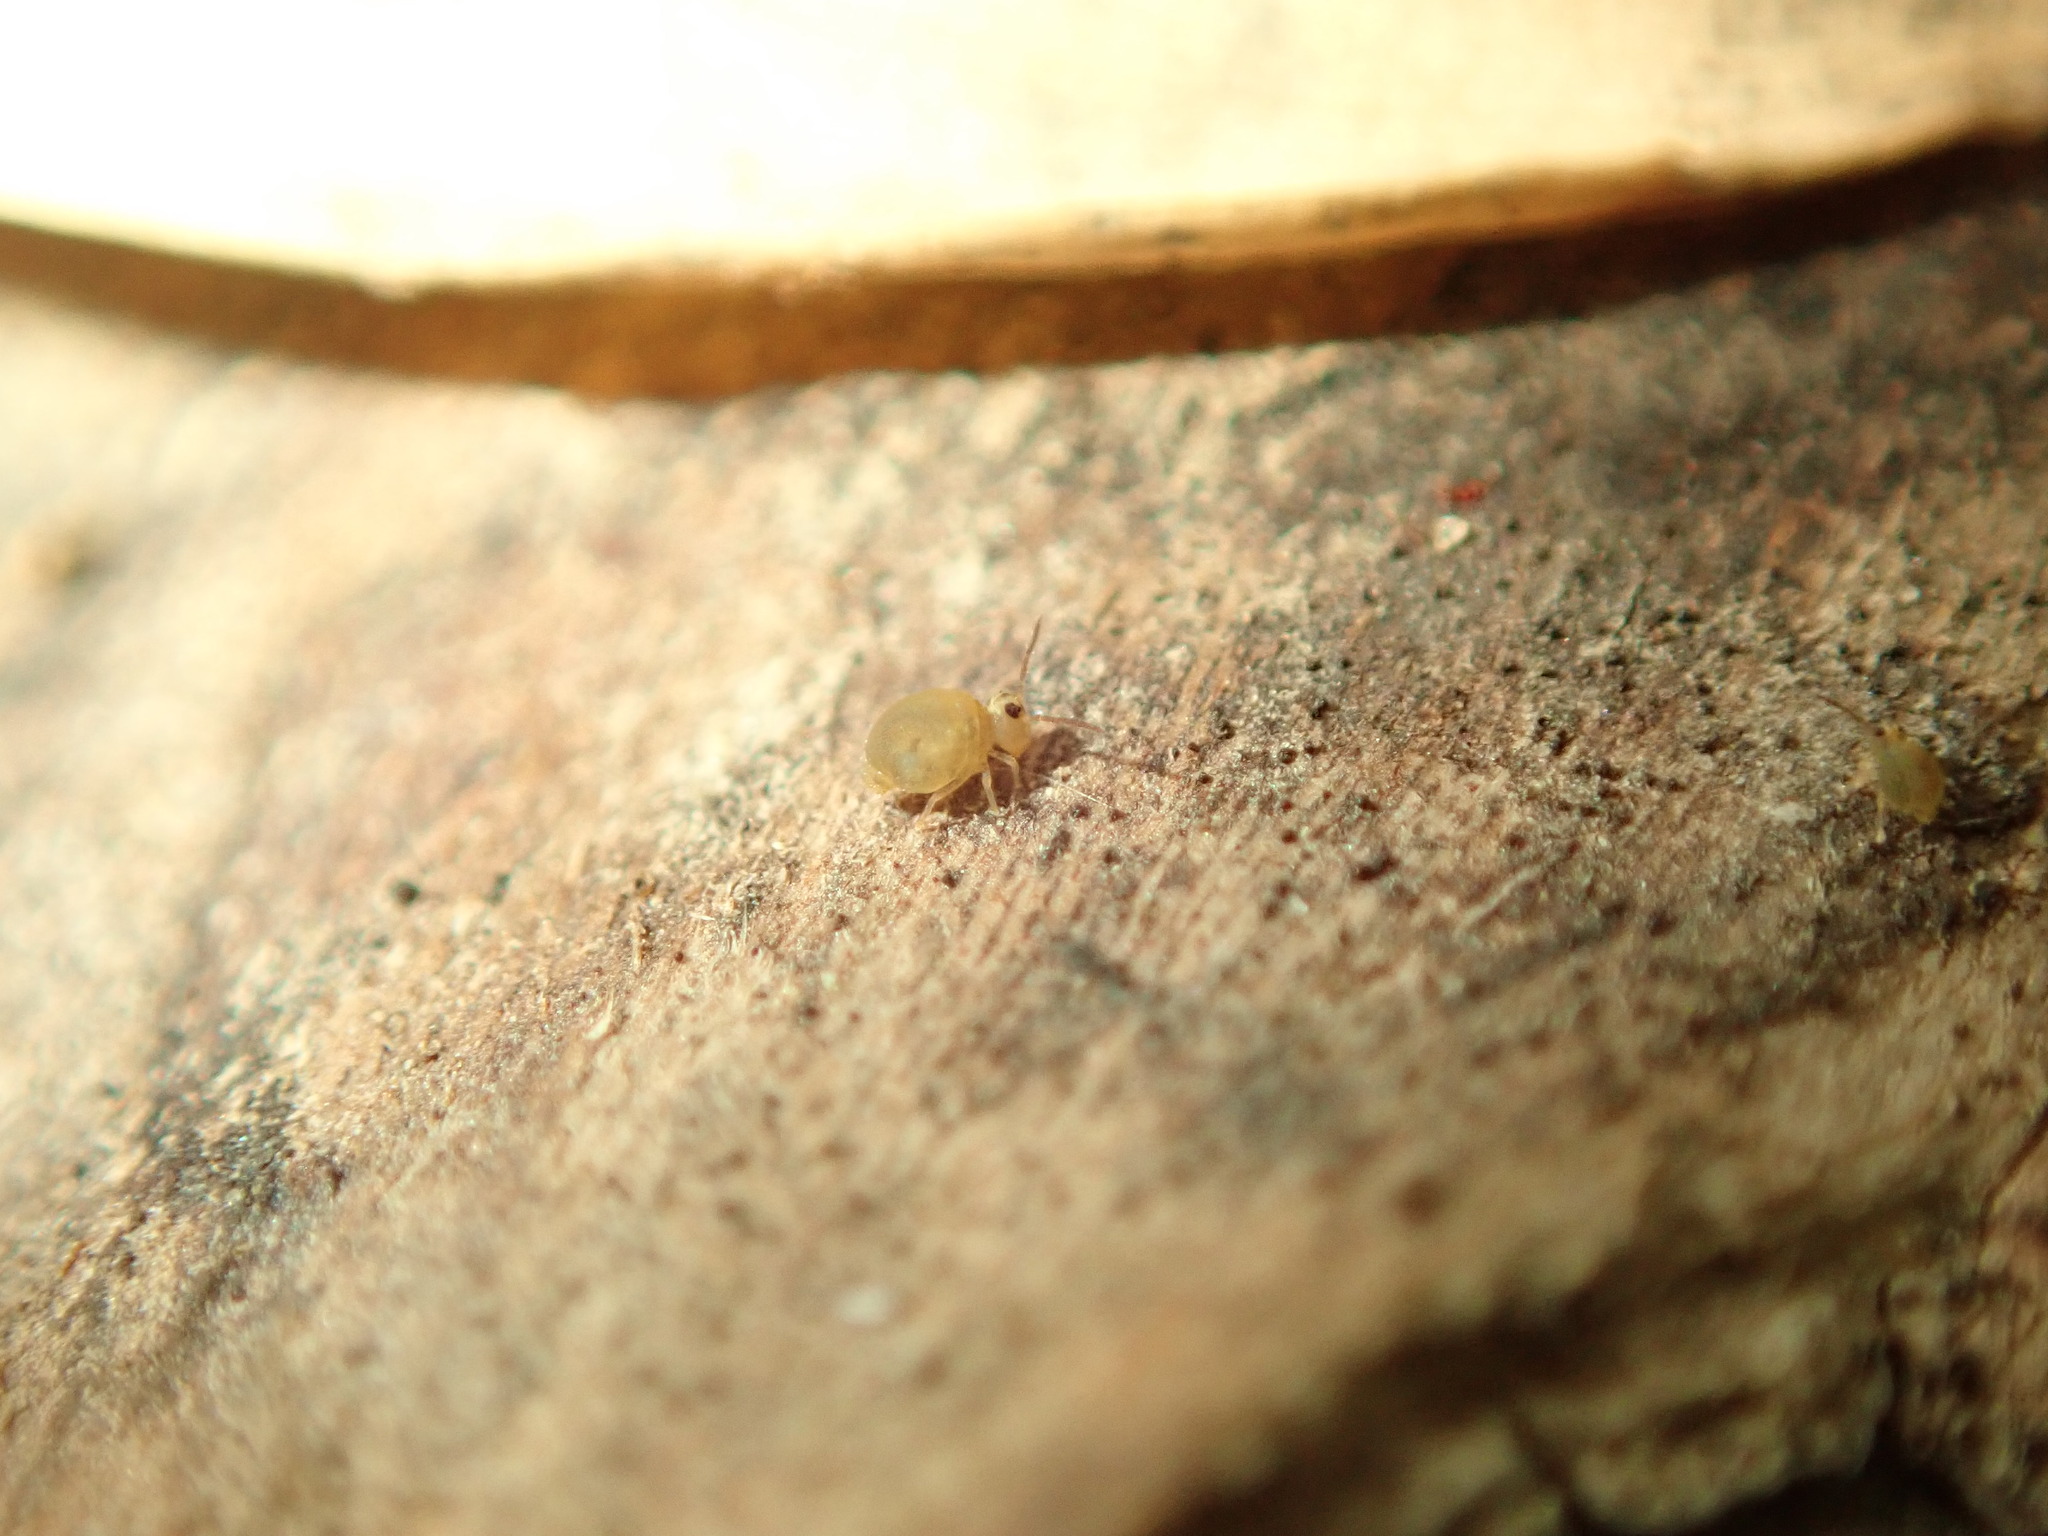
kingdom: Animalia
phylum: Arthropoda
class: Collembola
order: Symphypleona
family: Katiannidae
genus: Sminthurinus
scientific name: Sminthurinus henshawi
